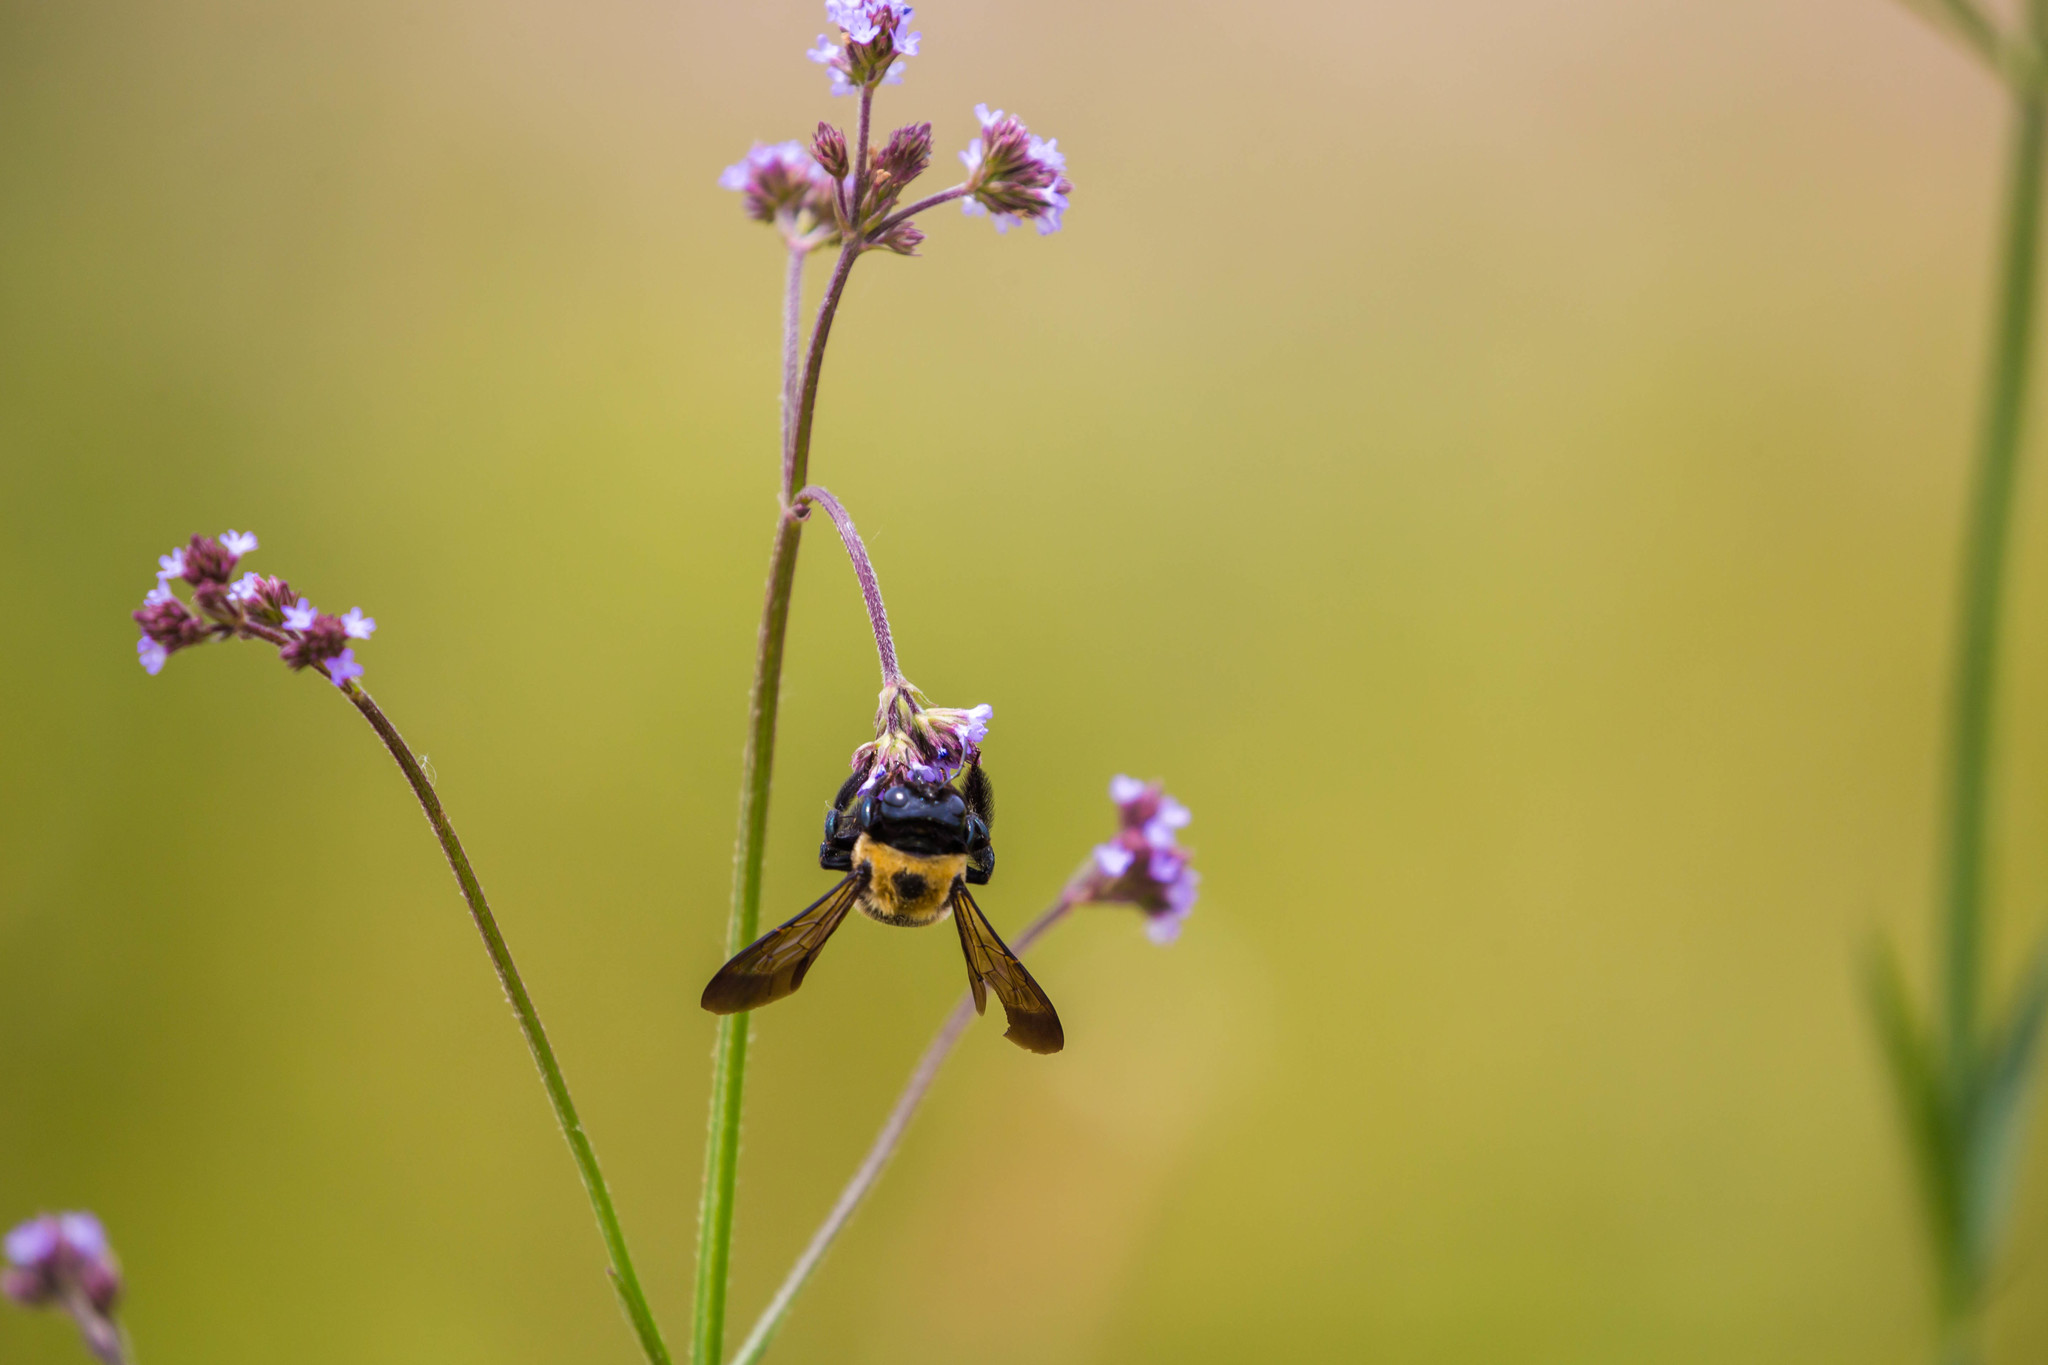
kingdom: Animalia
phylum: Arthropoda
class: Insecta
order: Hymenoptera
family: Apidae
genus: Xylocopa
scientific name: Xylocopa virginica
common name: Carpenter bee
